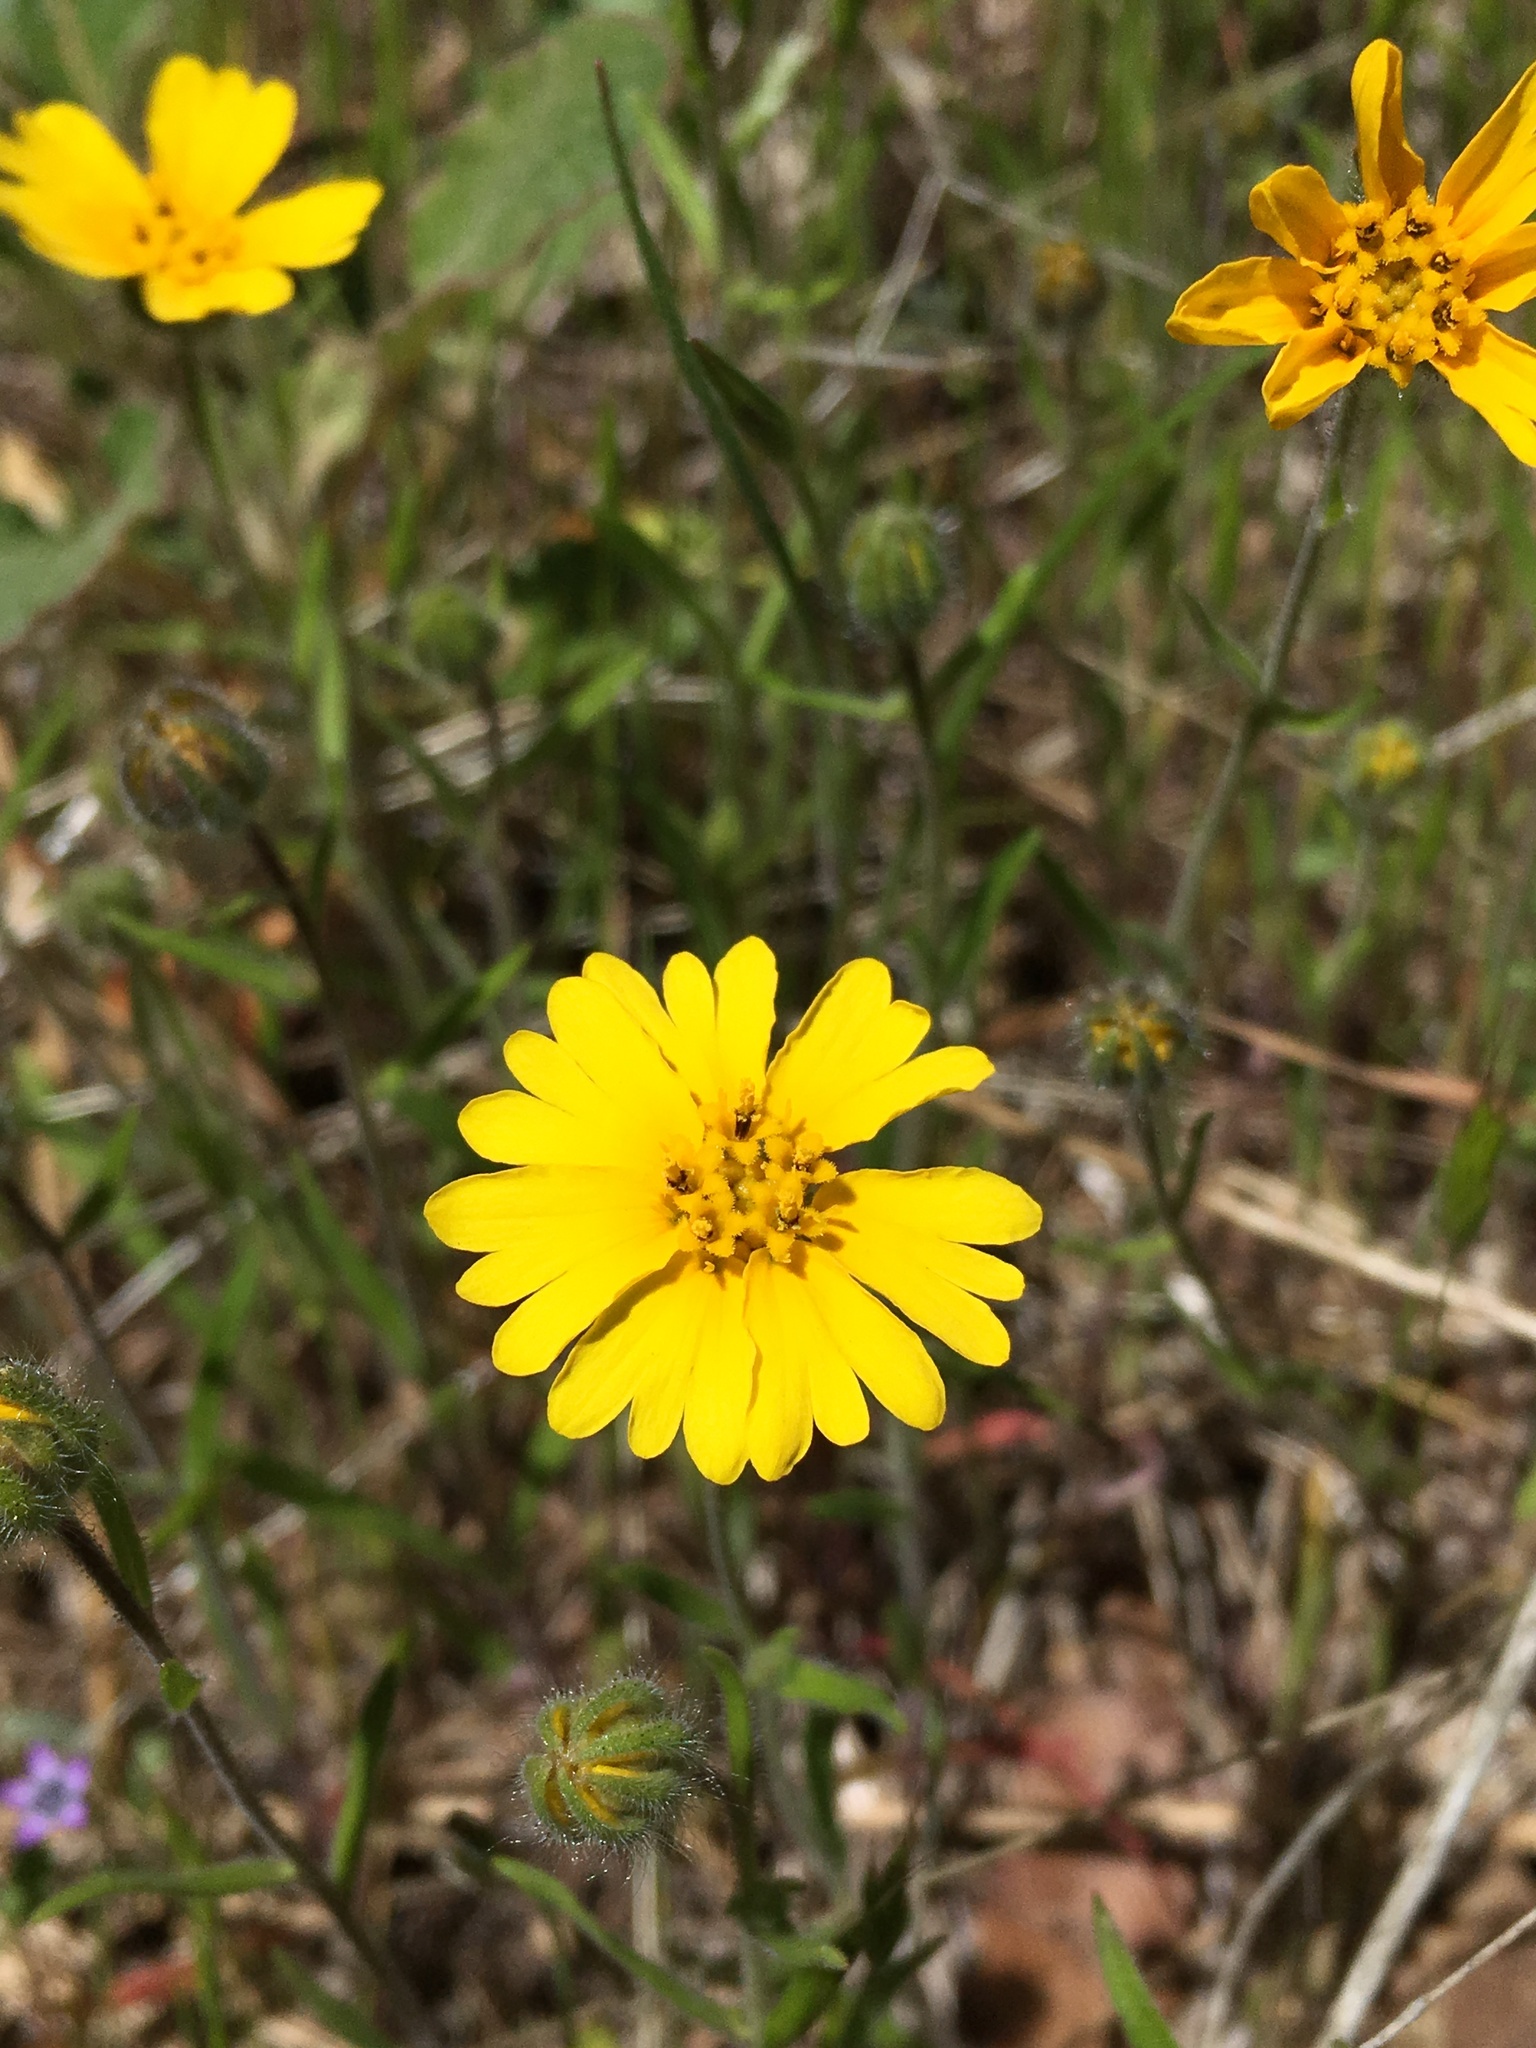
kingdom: Plantae
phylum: Tracheophyta
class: Magnoliopsida
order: Asterales
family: Asteraceae
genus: Madia
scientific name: Madia elegans
